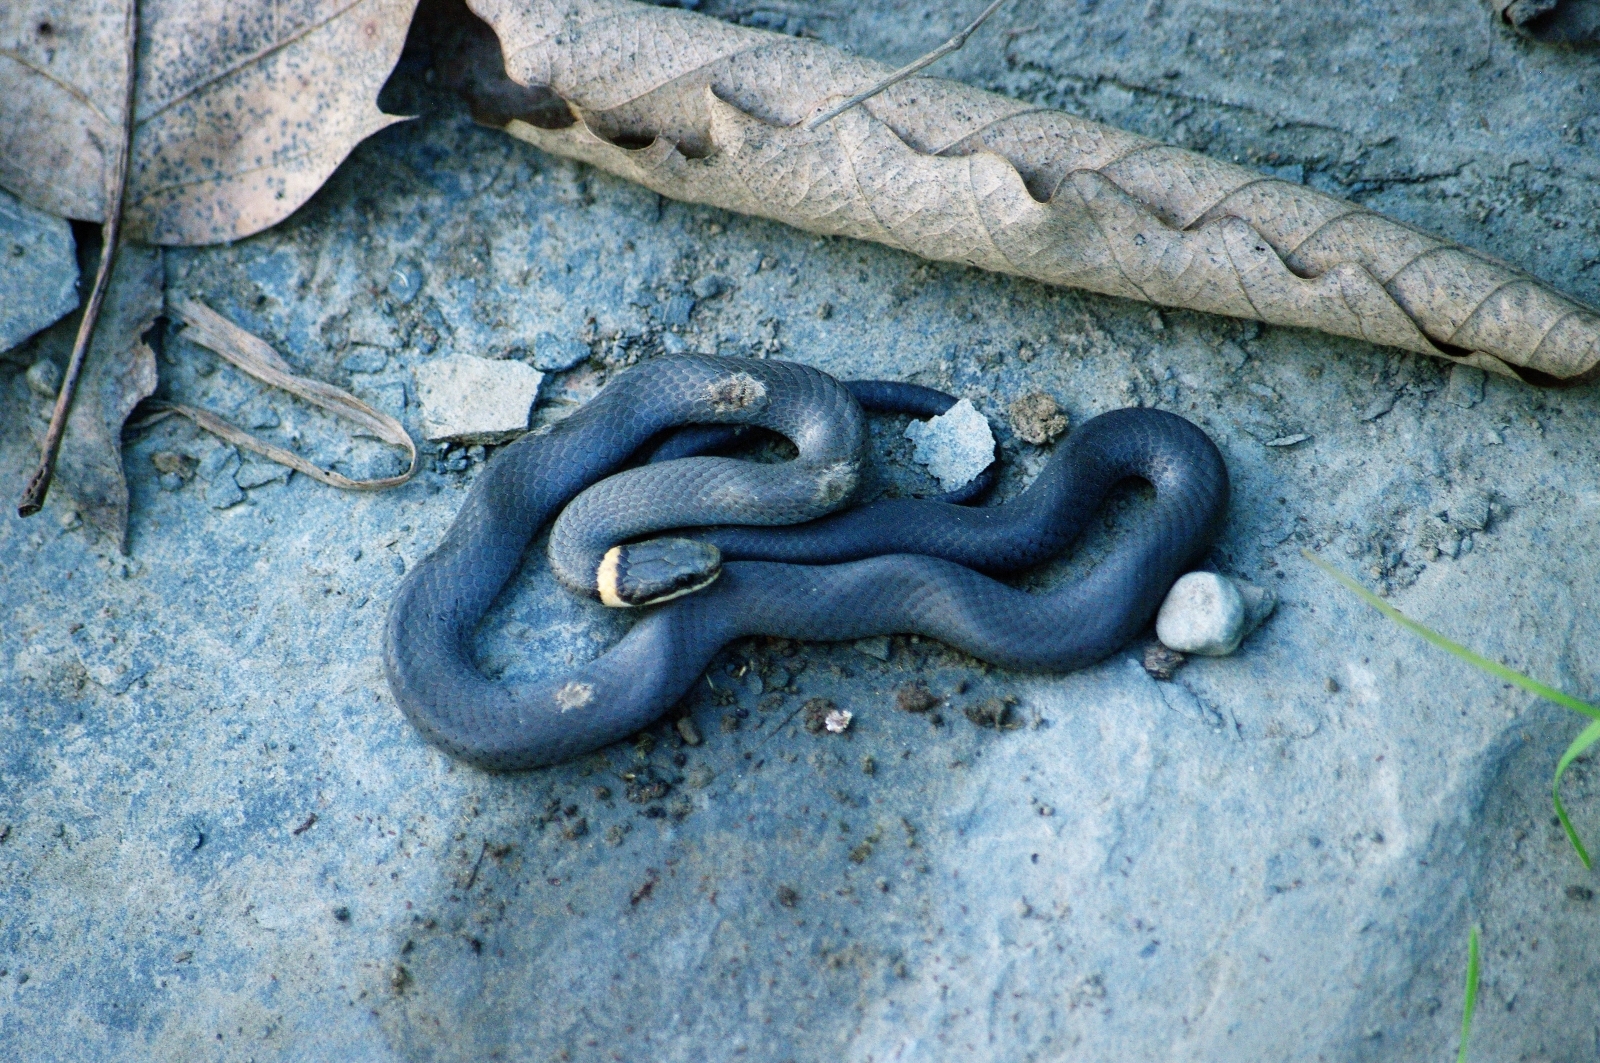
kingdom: Animalia
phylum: Chordata
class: Squamata
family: Colubridae
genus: Diadophis
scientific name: Diadophis punctatus
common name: Ringneck snake
